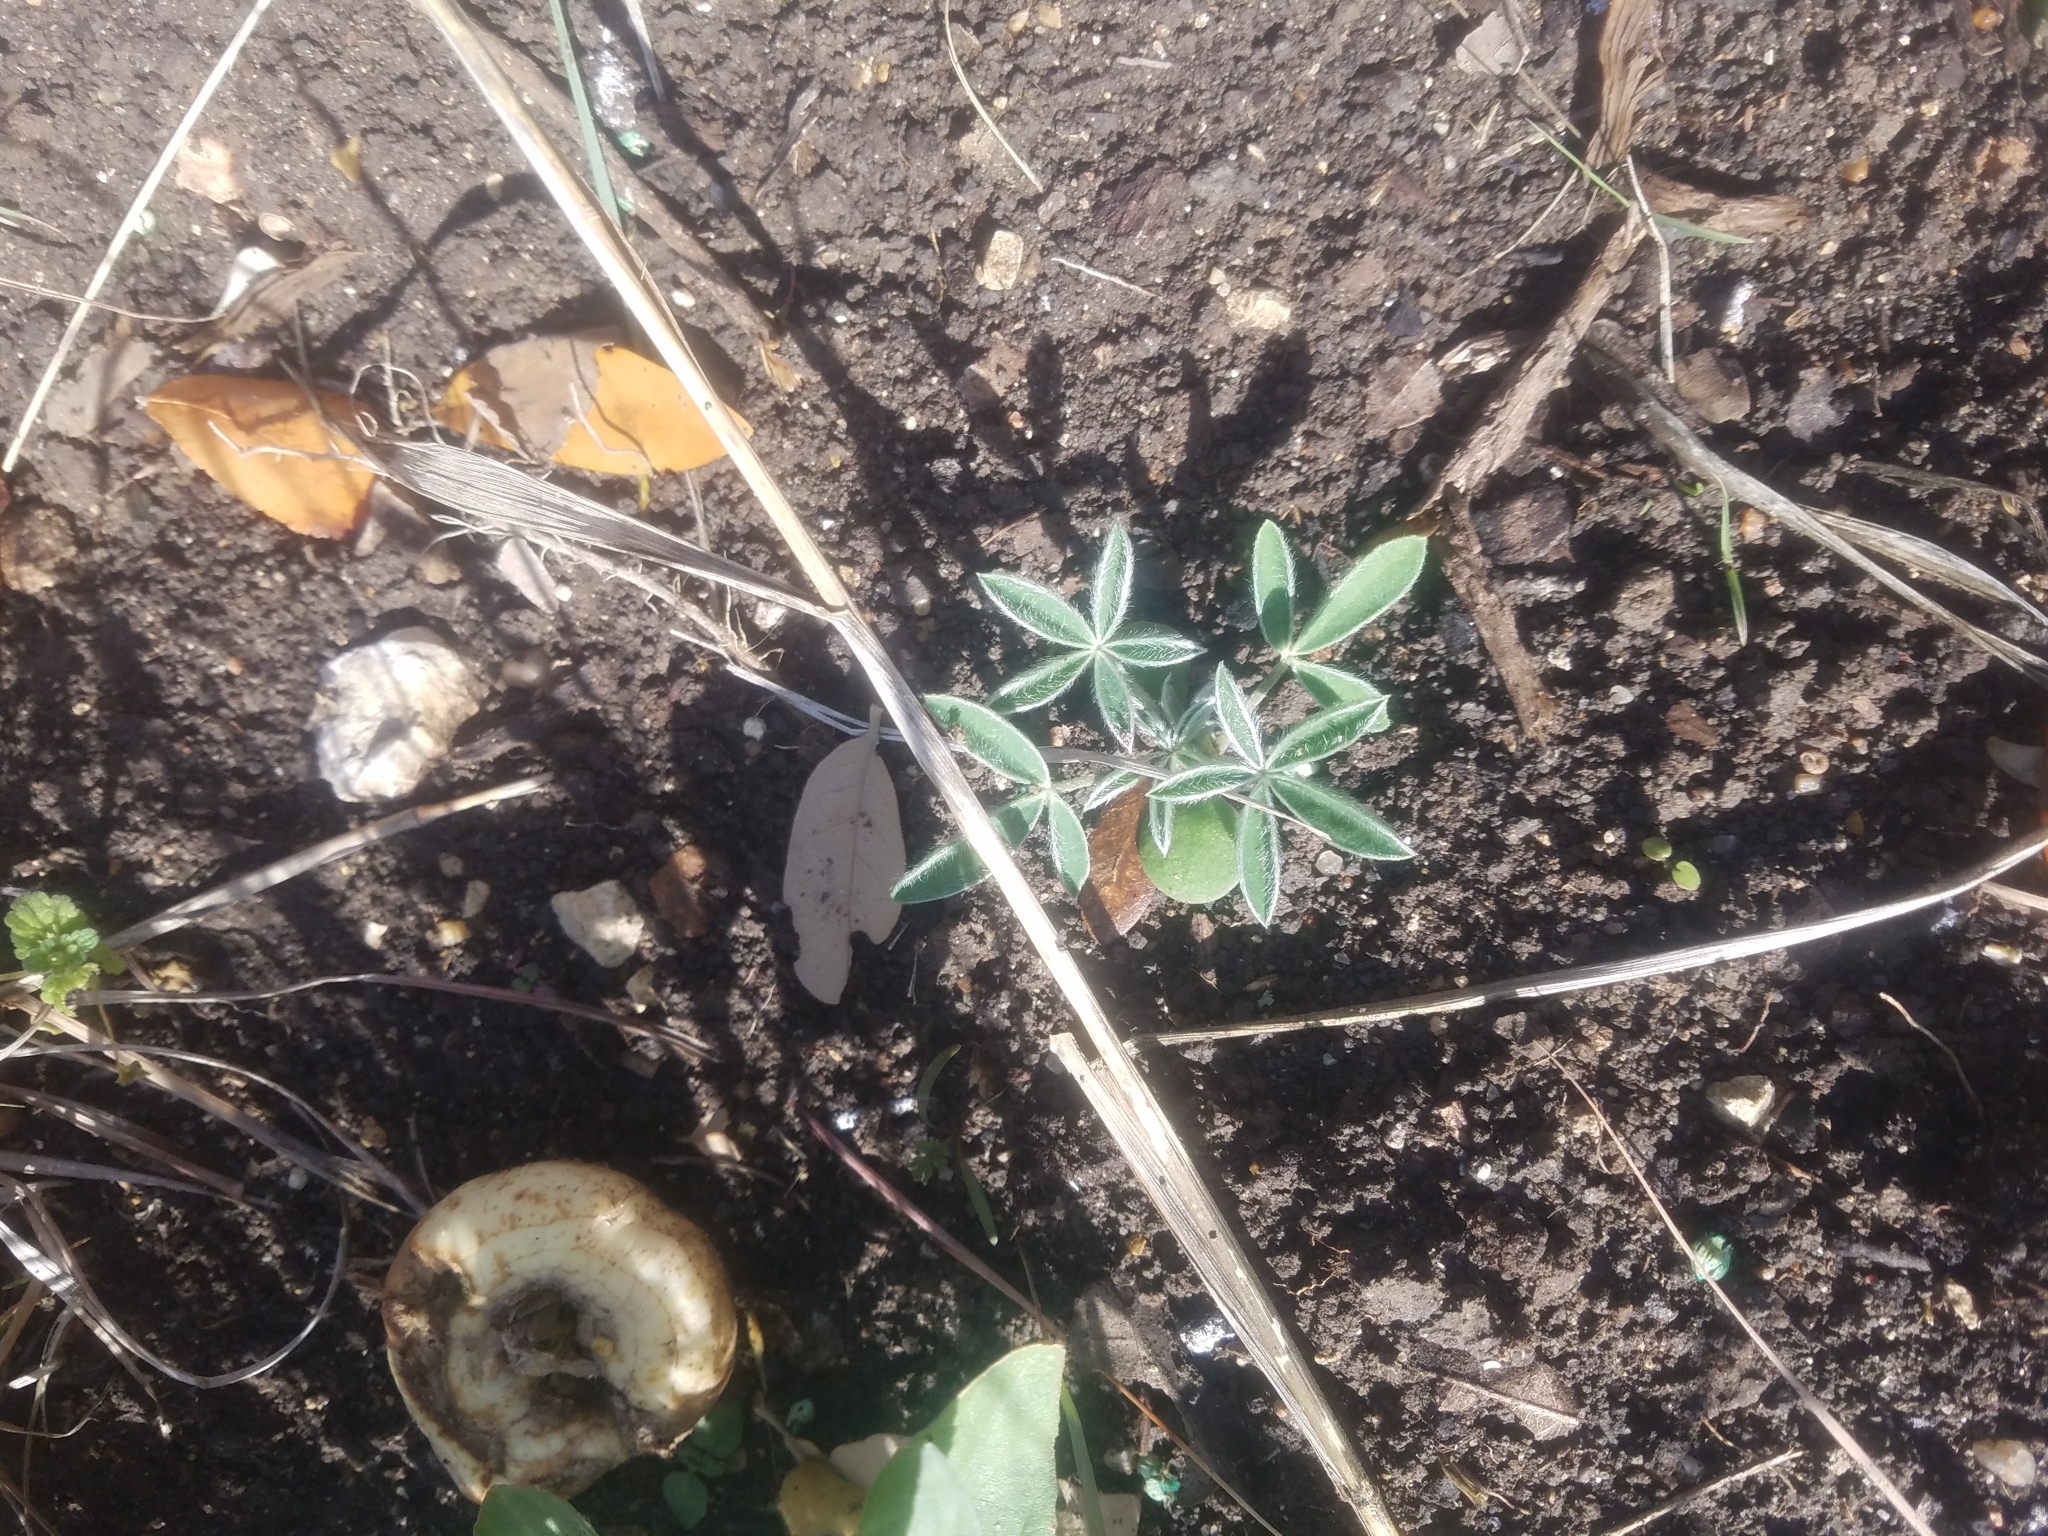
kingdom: Plantae
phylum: Tracheophyta
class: Magnoliopsida
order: Fabales
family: Fabaceae
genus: Lupinus
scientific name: Lupinus texensis
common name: Texas bluebonnet
